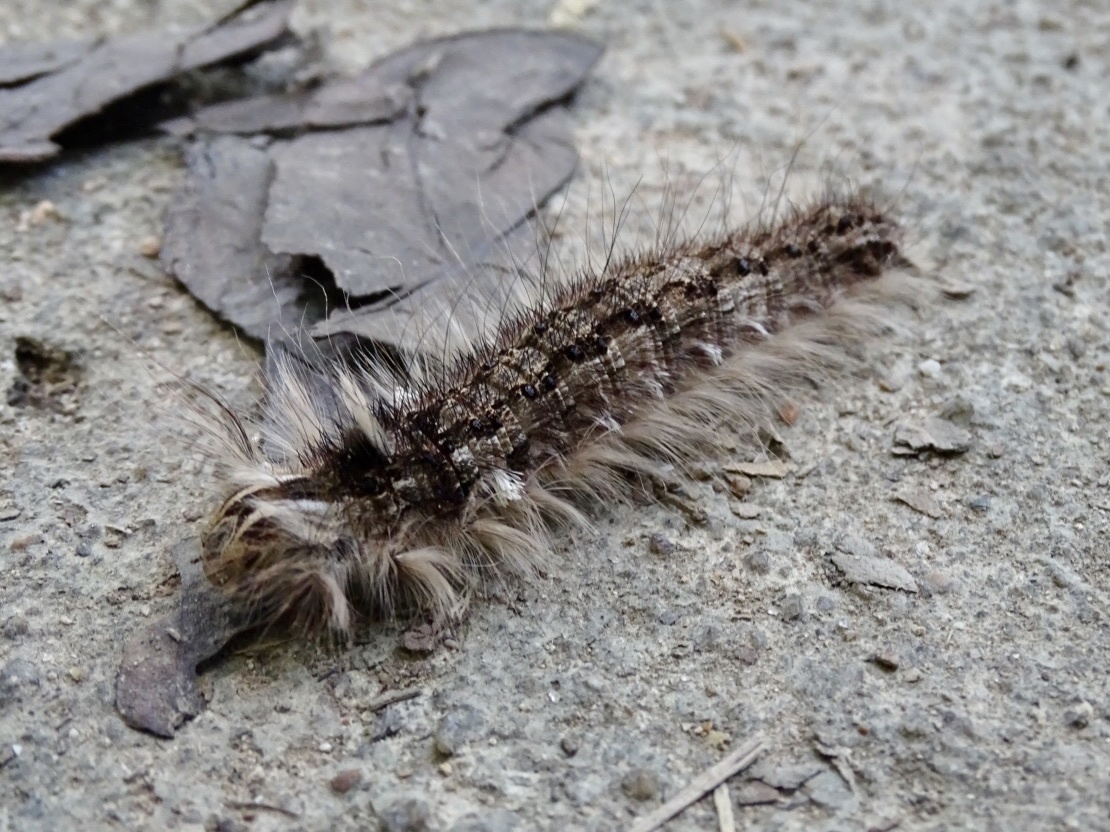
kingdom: Animalia
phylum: Arthropoda
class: Insecta
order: Lepidoptera
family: Lasiocampidae
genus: Metanastria
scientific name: Metanastria gemella
